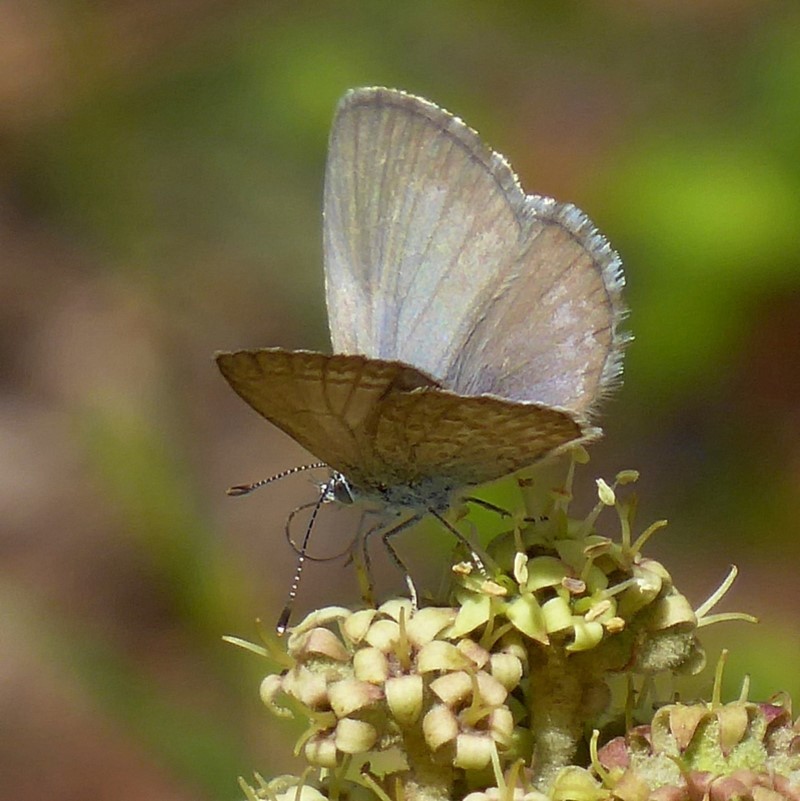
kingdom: Animalia
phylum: Arthropoda
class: Insecta
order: Lepidoptera
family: Lycaenidae
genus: Zizina
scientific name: Zizina labradus
